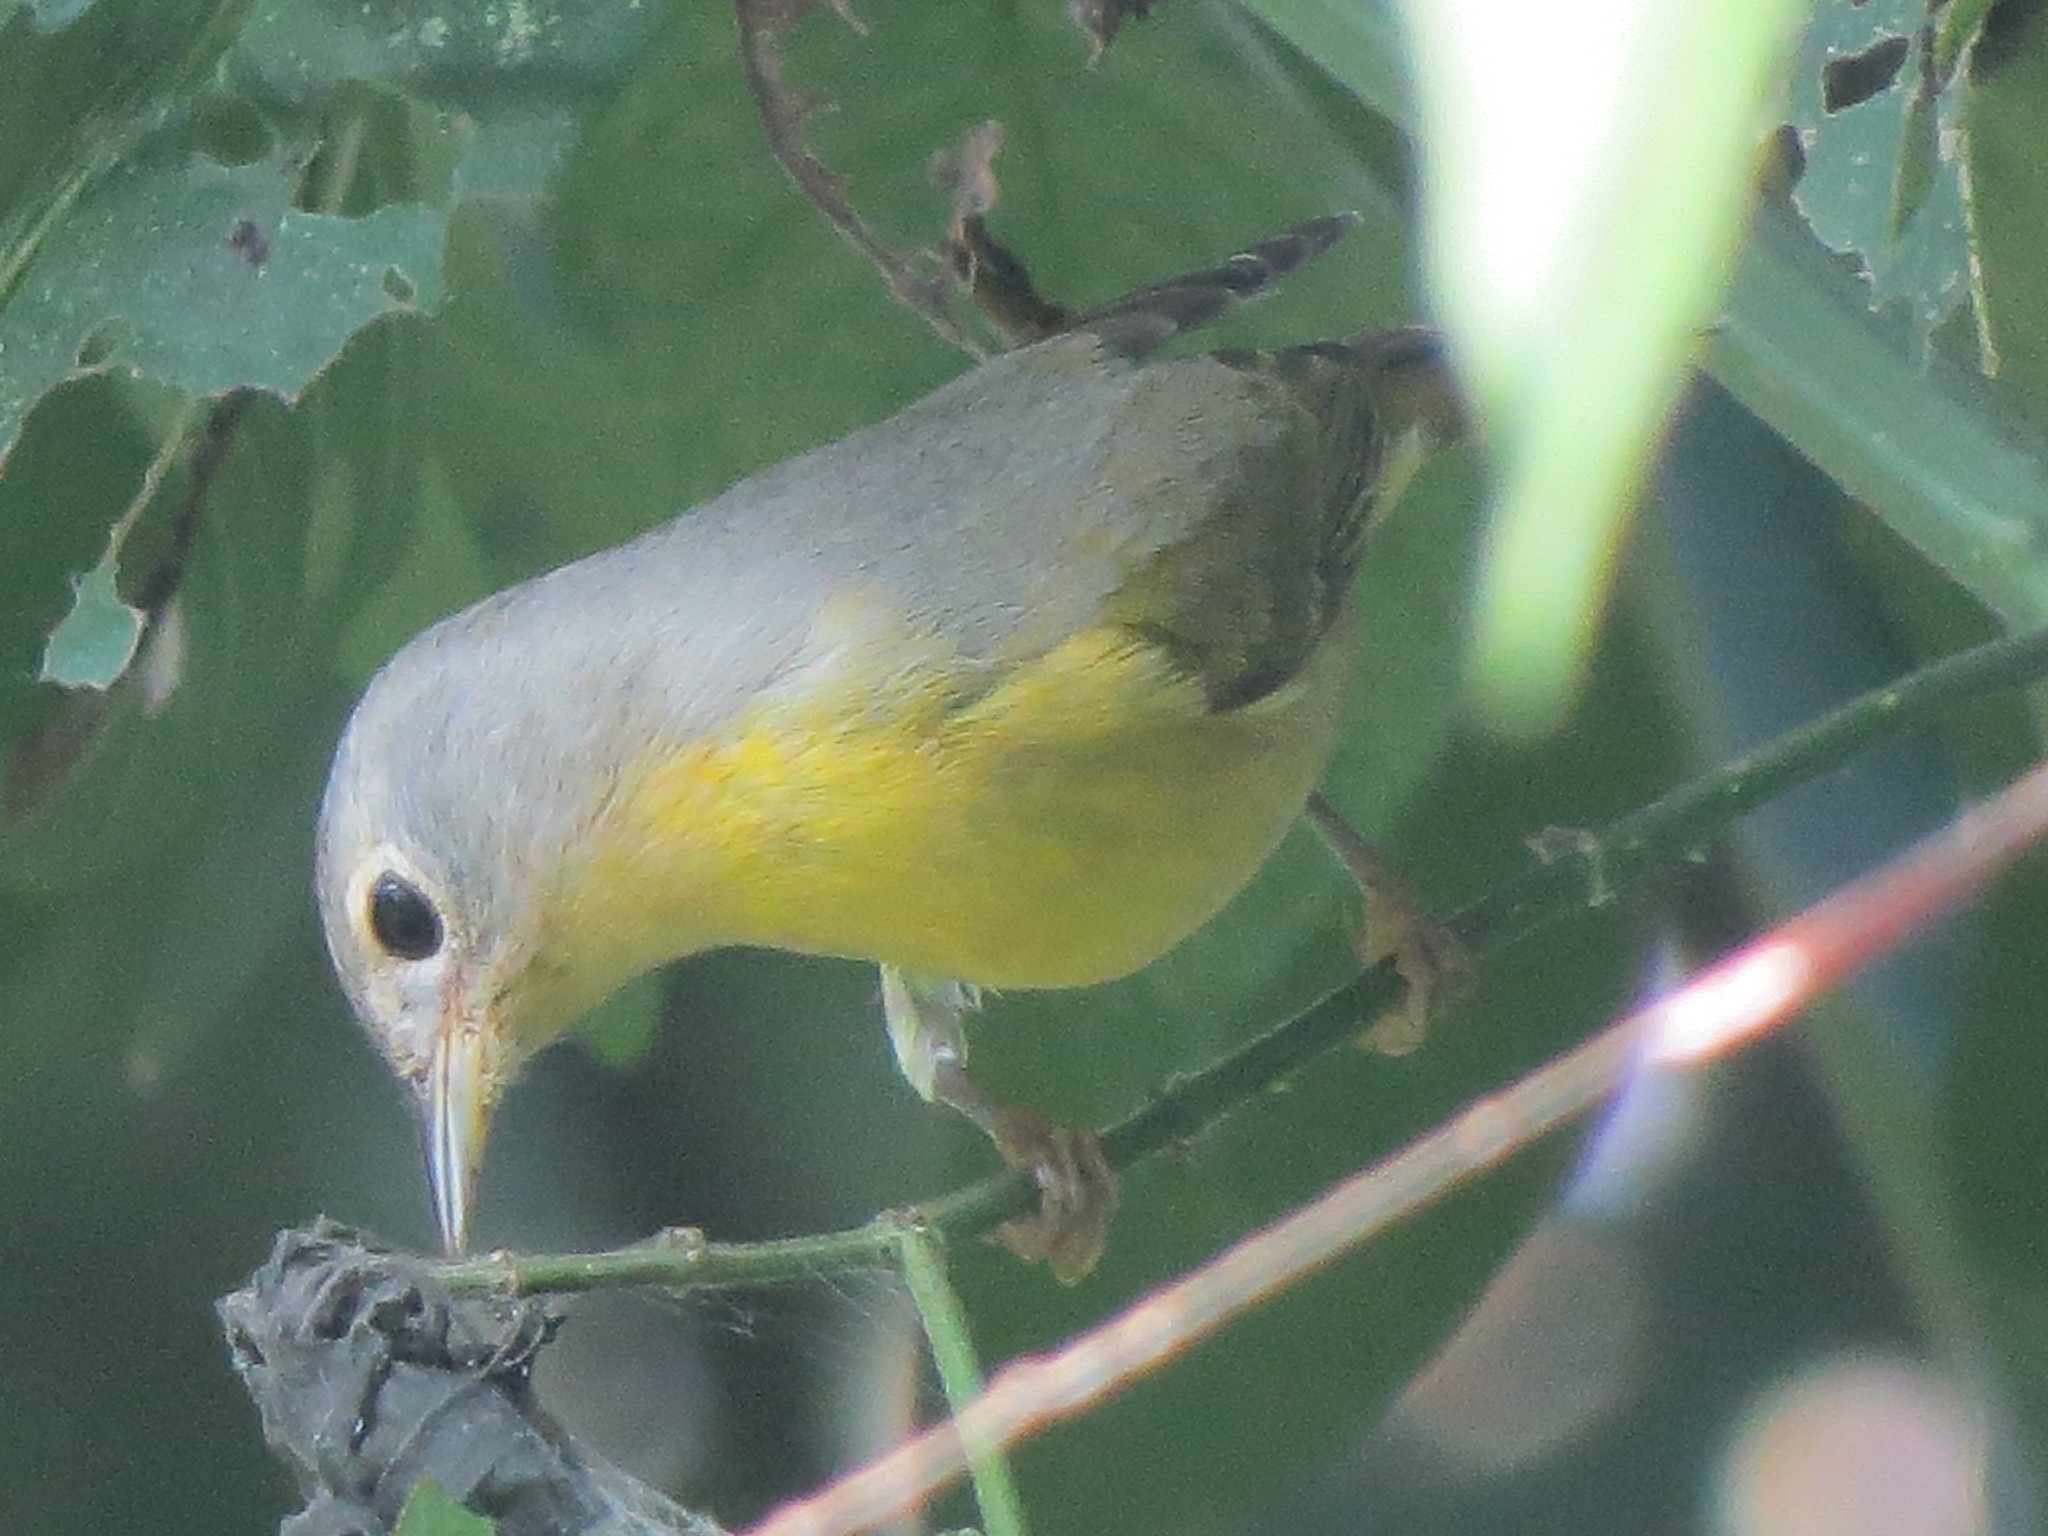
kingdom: Animalia
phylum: Chordata
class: Aves
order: Passeriformes
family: Parulidae
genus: Leiothlypis
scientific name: Leiothlypis ruficapilla
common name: Nashville warbler
